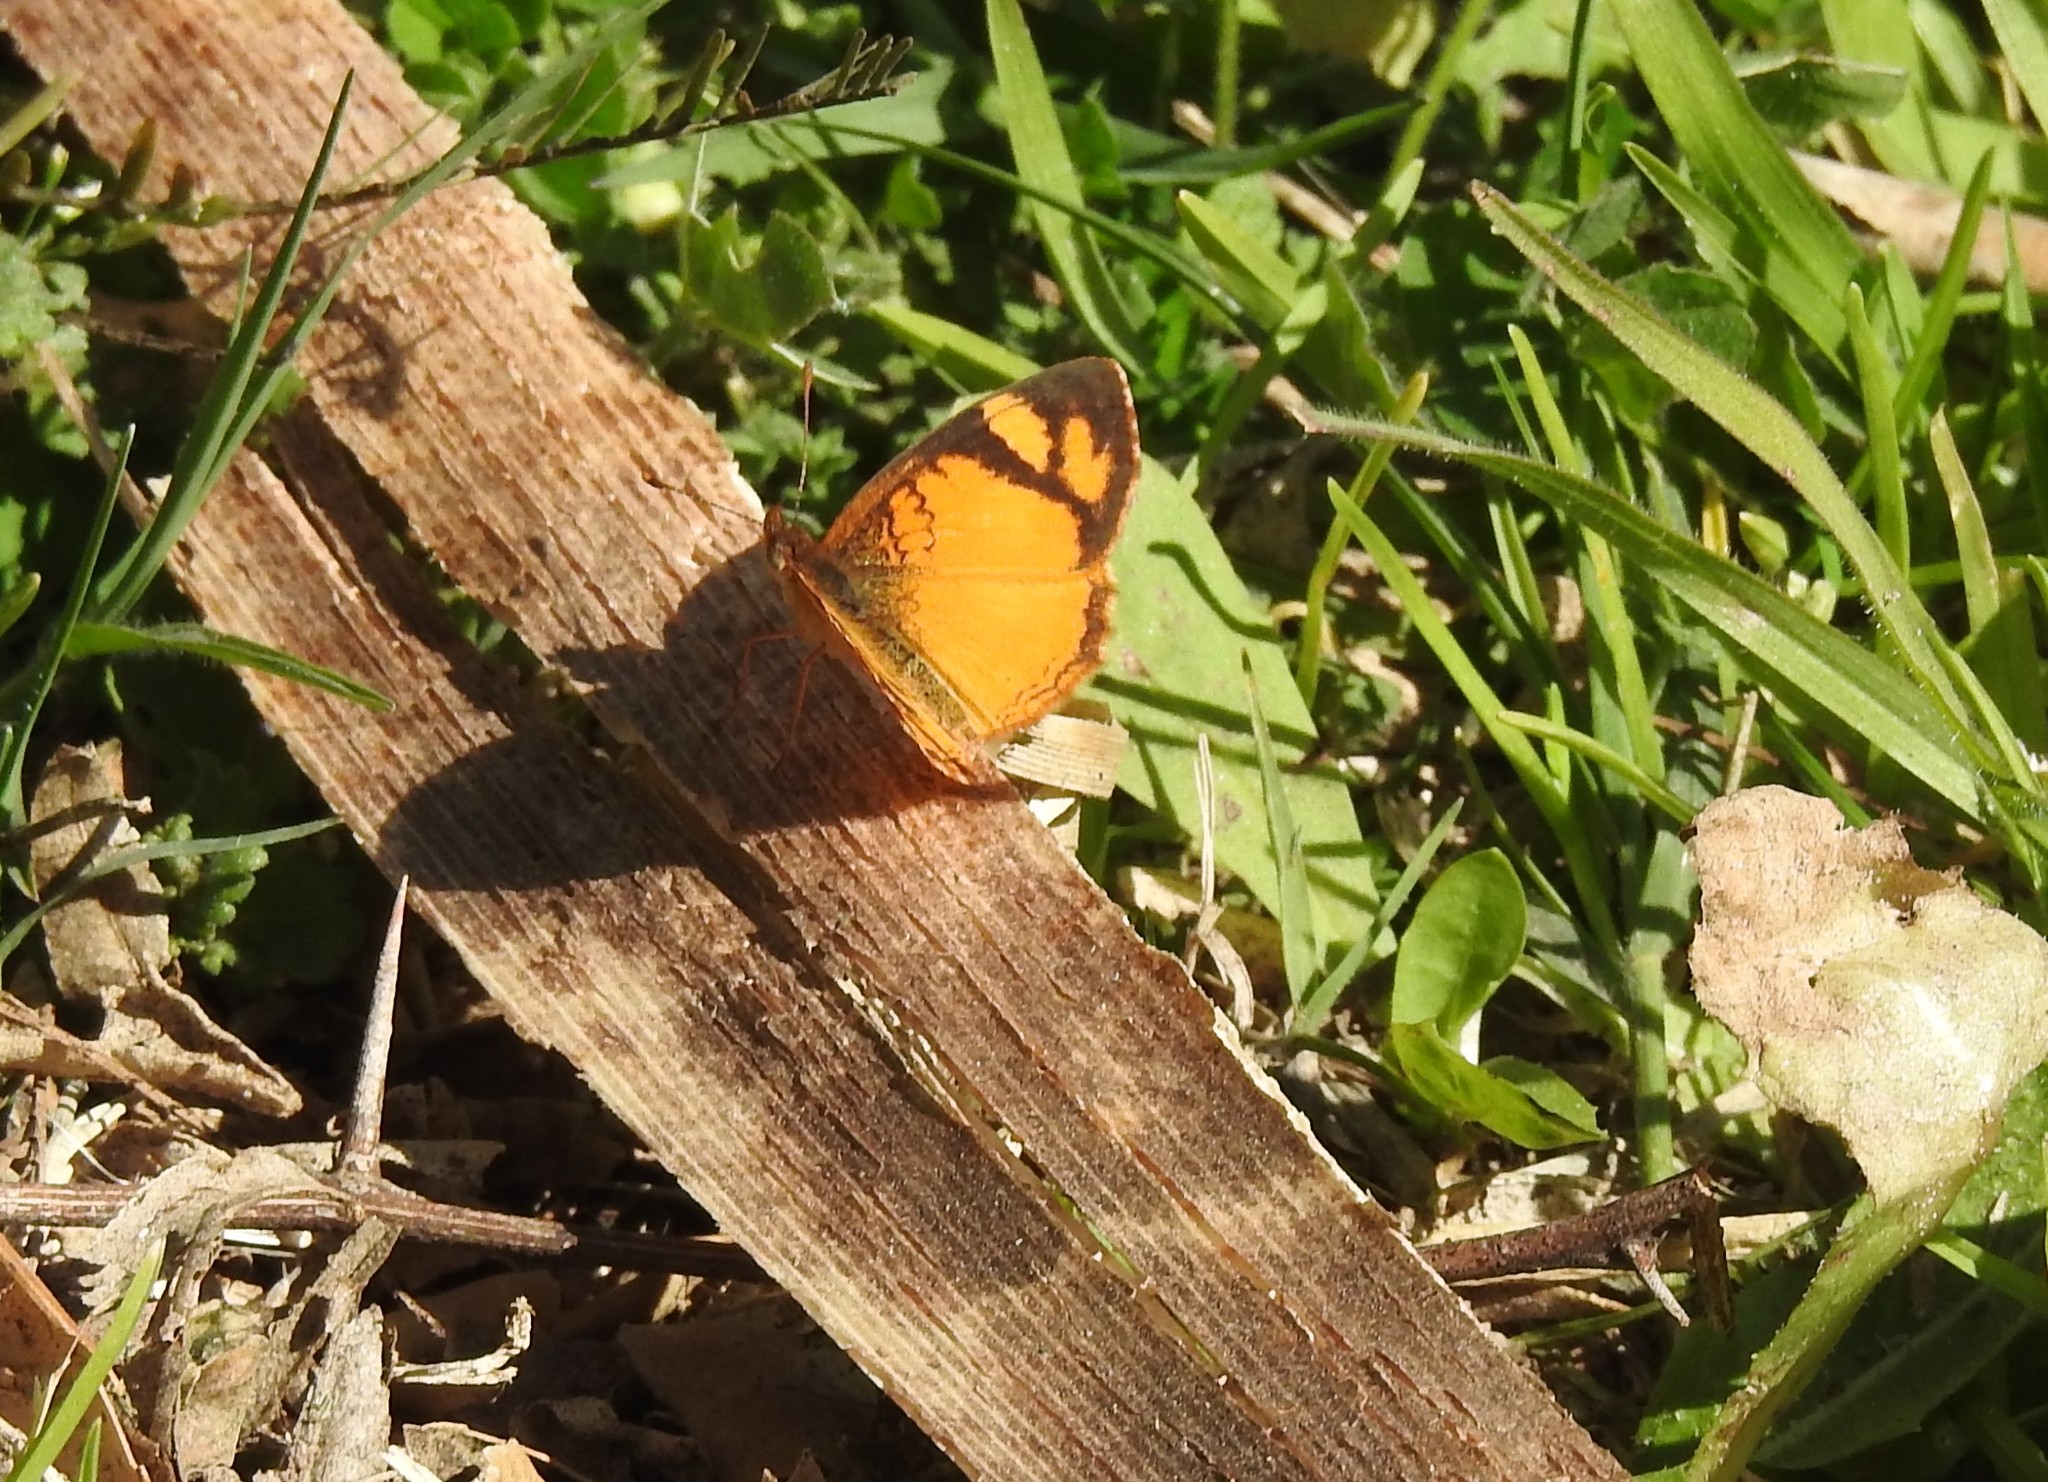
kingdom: Animalia
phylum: Arthropoda
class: Insecta
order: Lepidoptera
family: Nymphalidae
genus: Tegosa
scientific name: Tegosa claudina
